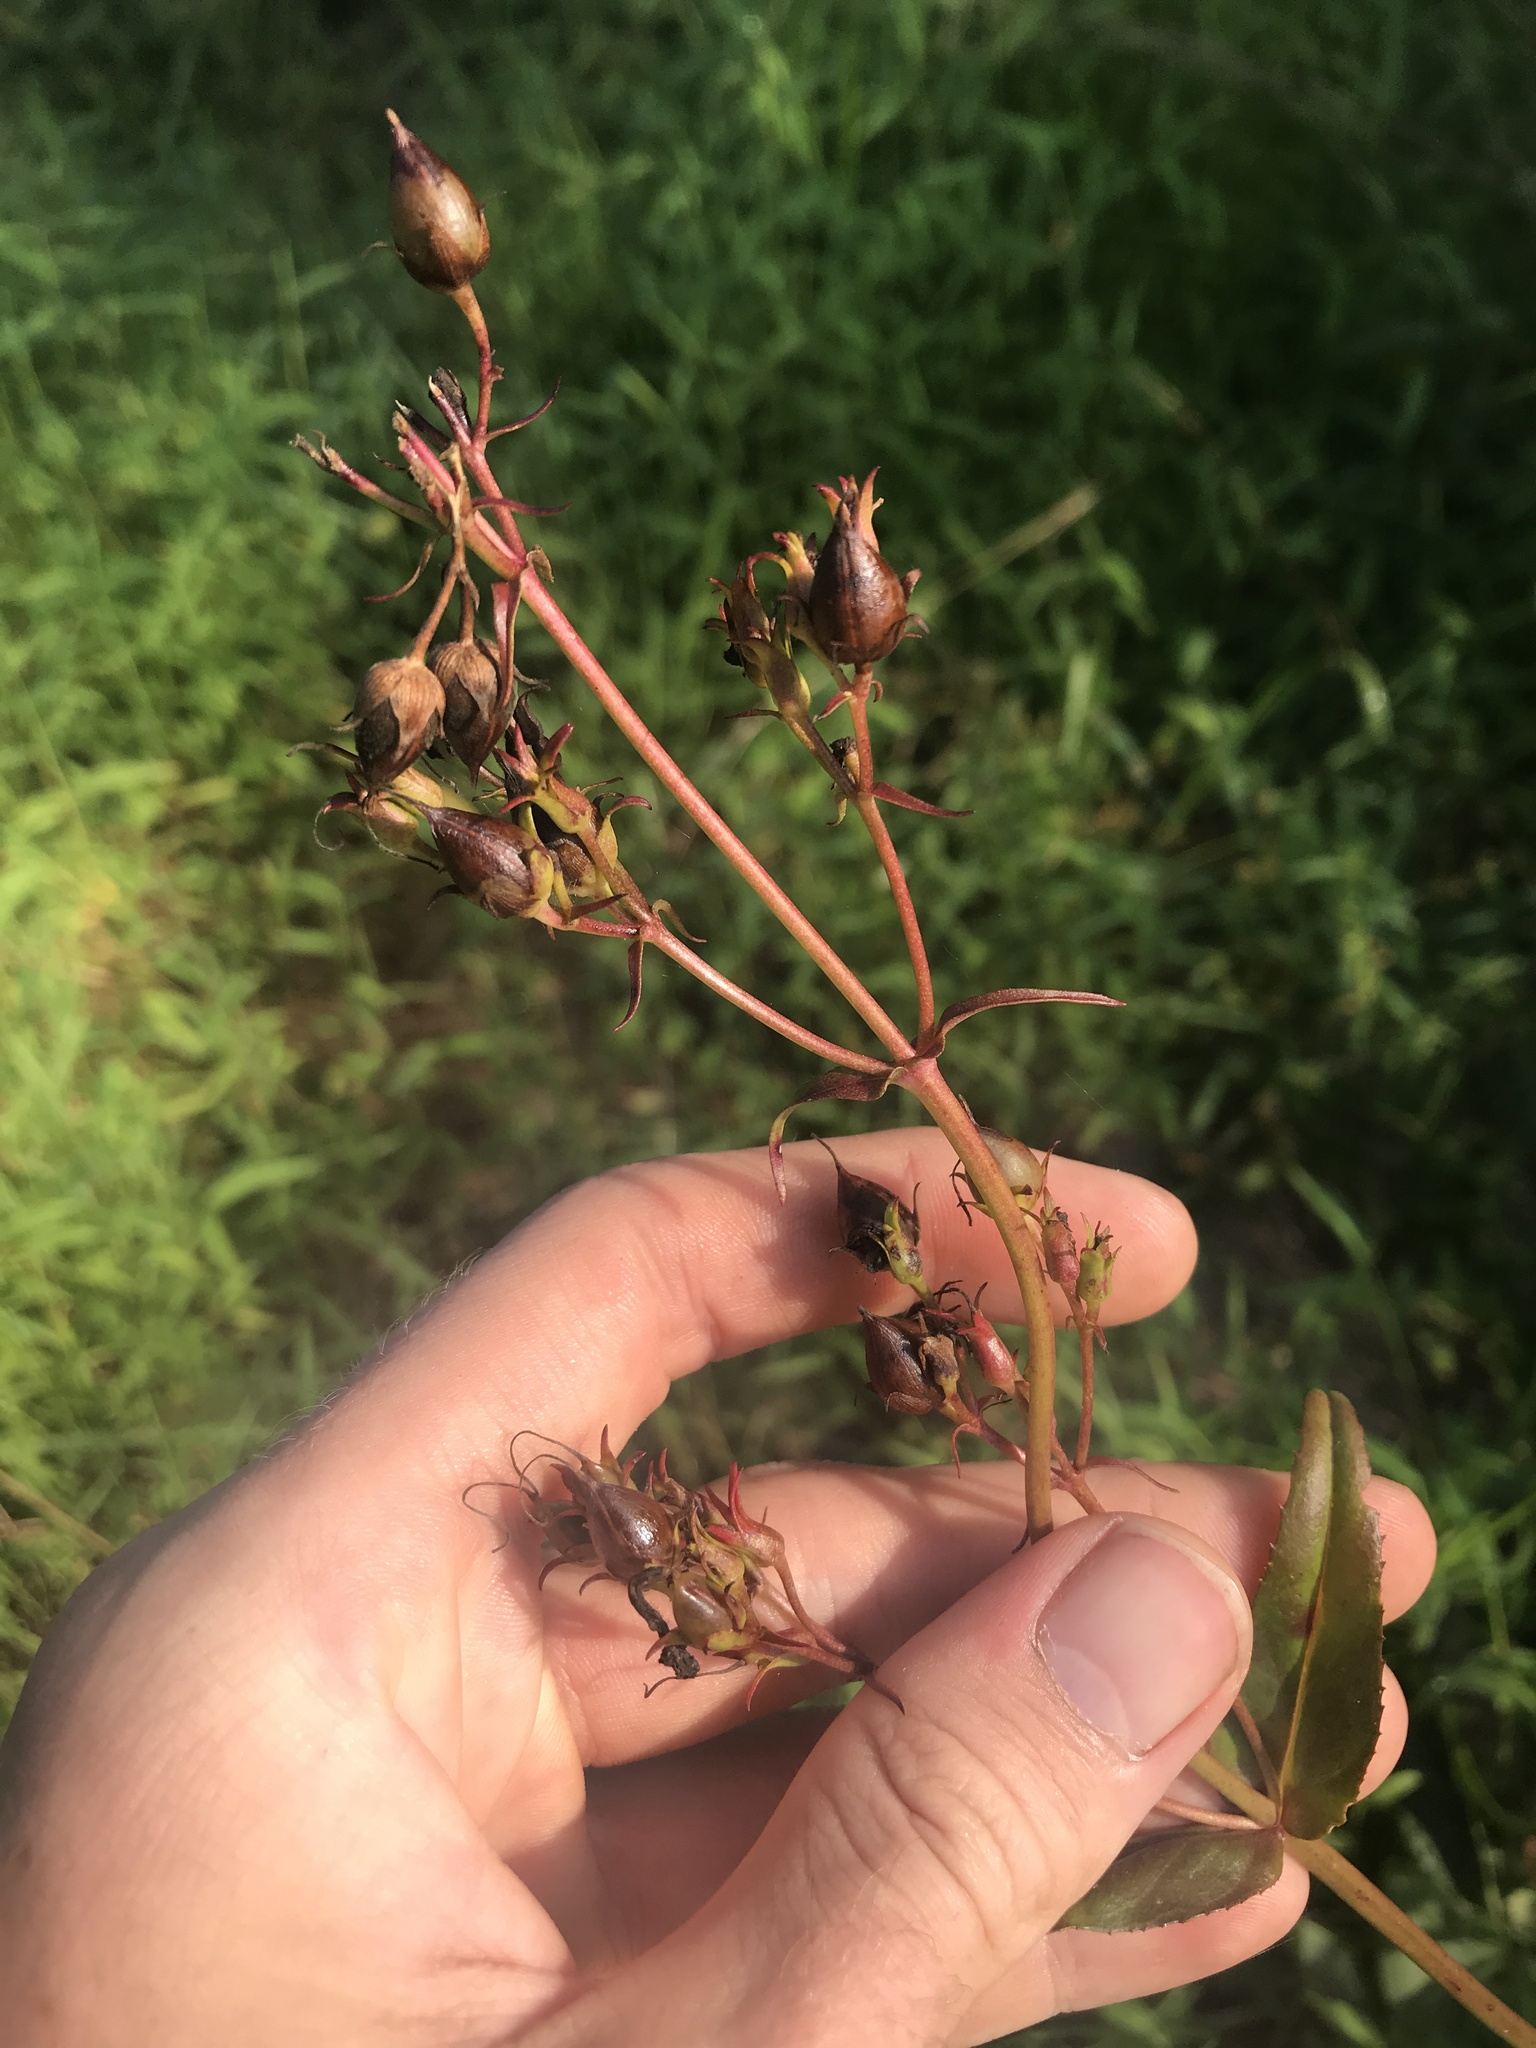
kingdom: Plantae
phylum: Tracheophyta
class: Magnoliopsida
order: Lamiales
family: Plantaginaceae
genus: Penstemon
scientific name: Penstemon digitalis
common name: Foxglove beardtongue
